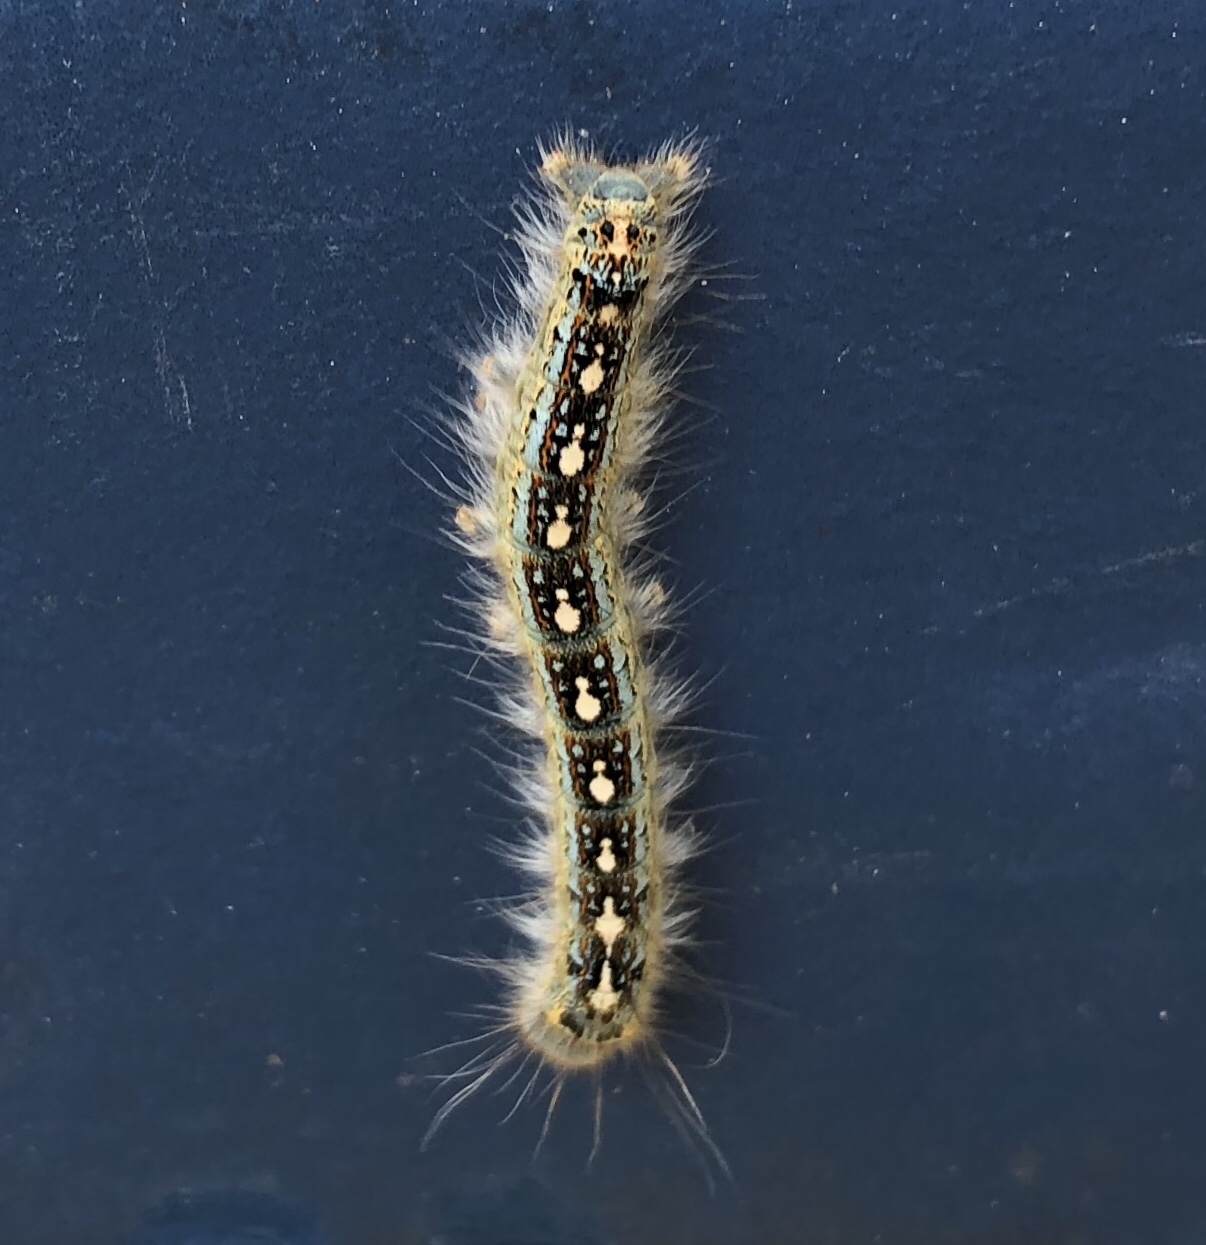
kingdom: Animalia
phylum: Arthropoda
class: Insecta
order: Lepidoptera
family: Lasiocampidae
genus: Malacosoma
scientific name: Malacosoma disstria
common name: Forest tent caterpillar
